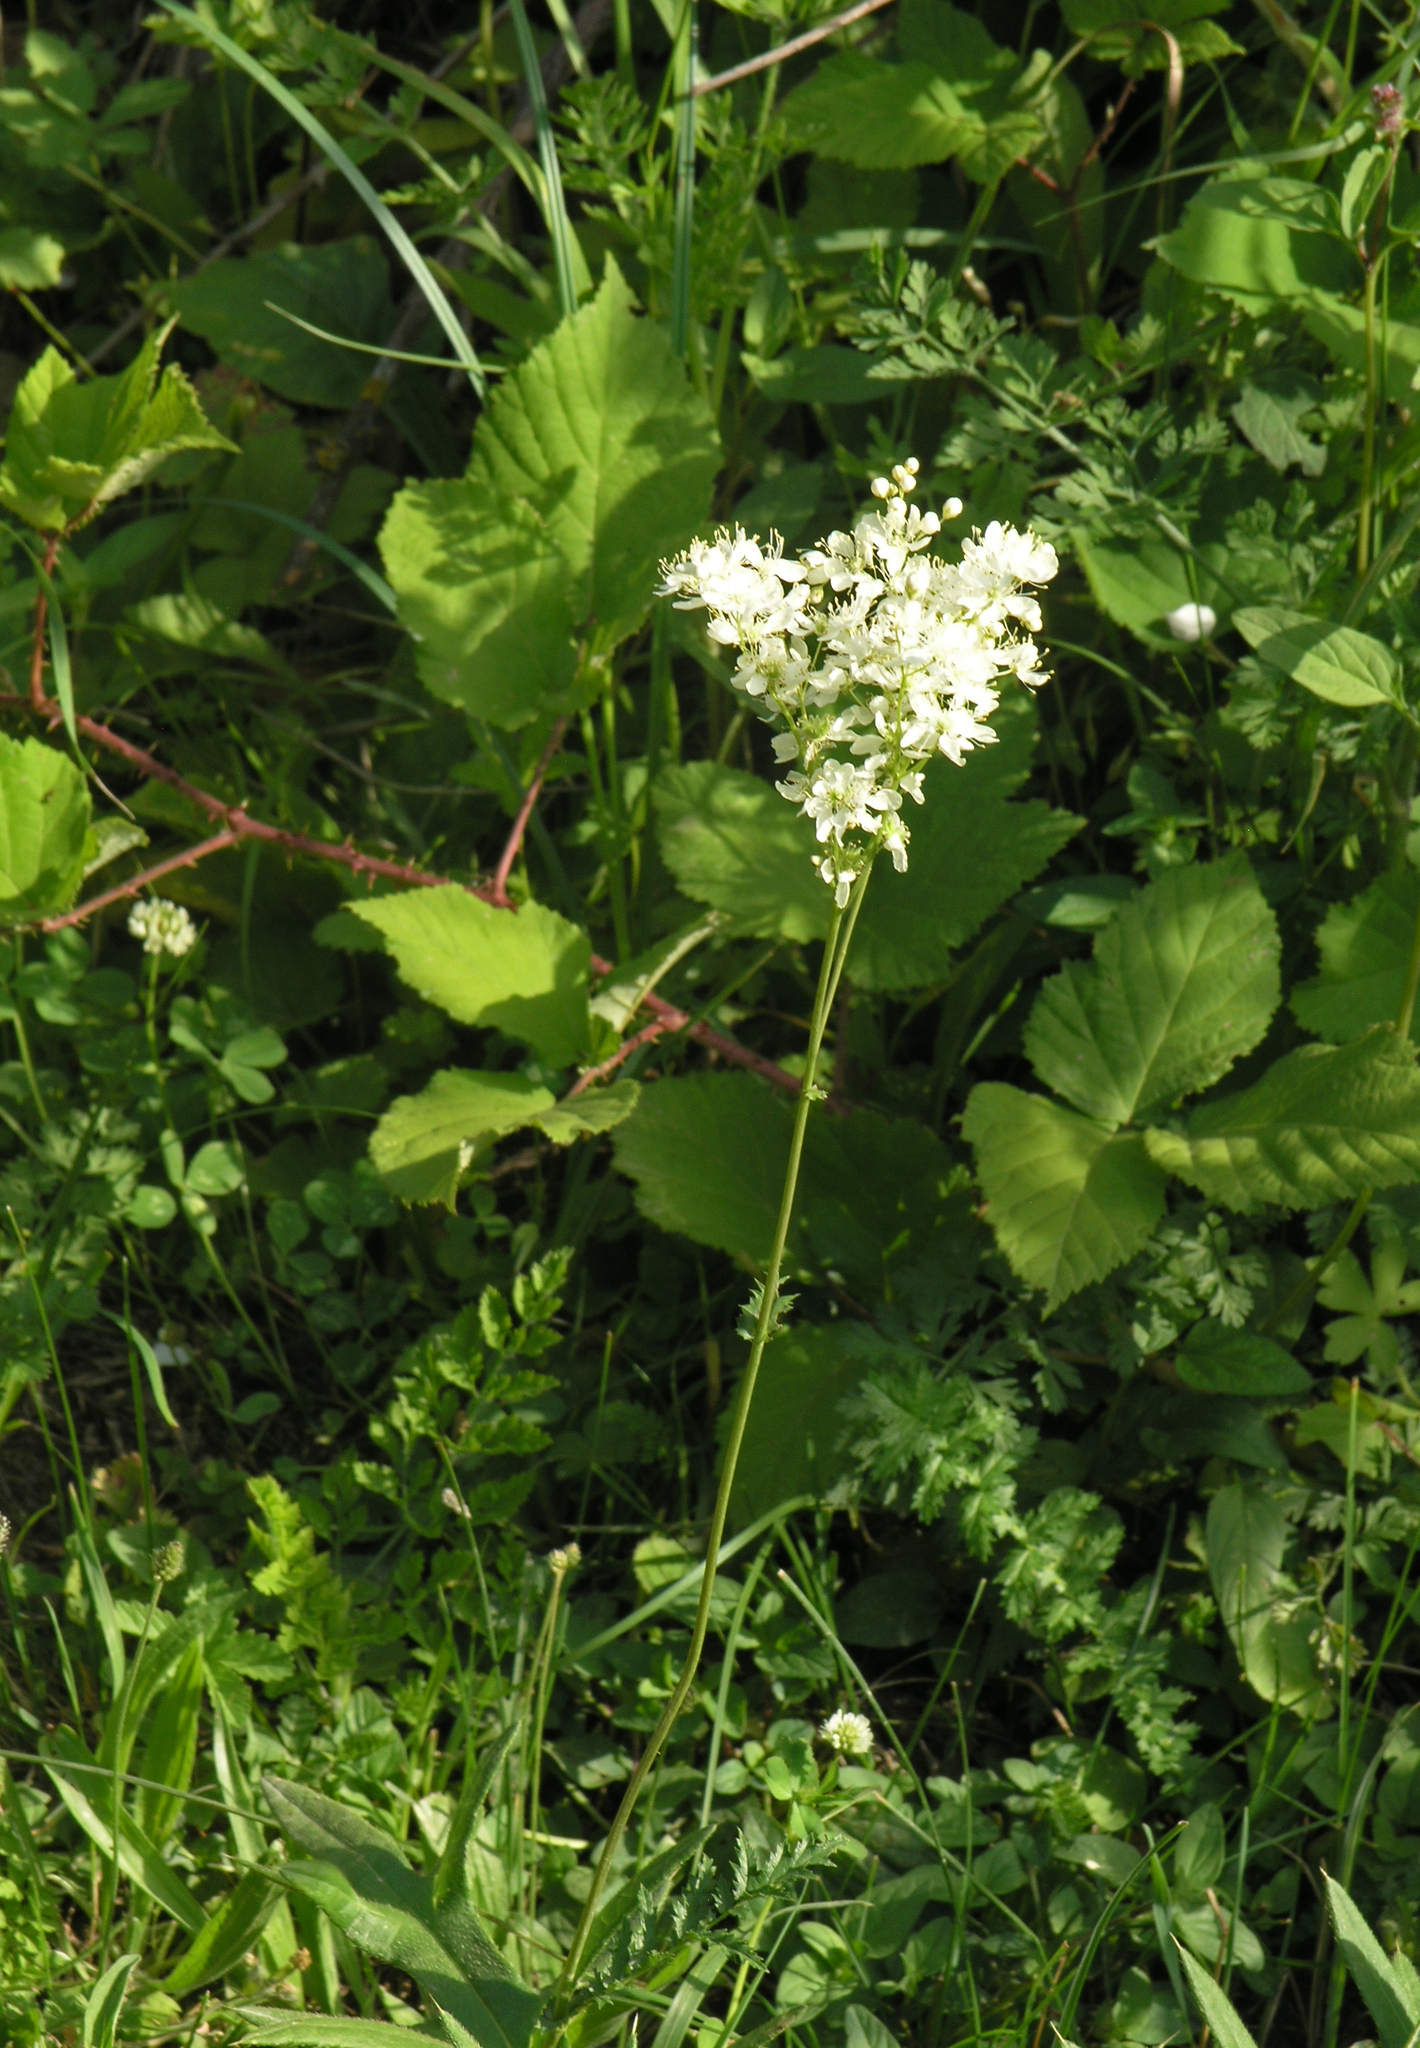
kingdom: Plantae
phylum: Tracheophyta
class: Magnoliopsida
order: Rosales
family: Rosaceae
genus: Filipendula
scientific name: Filipendula vulgaris
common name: Dropwort
